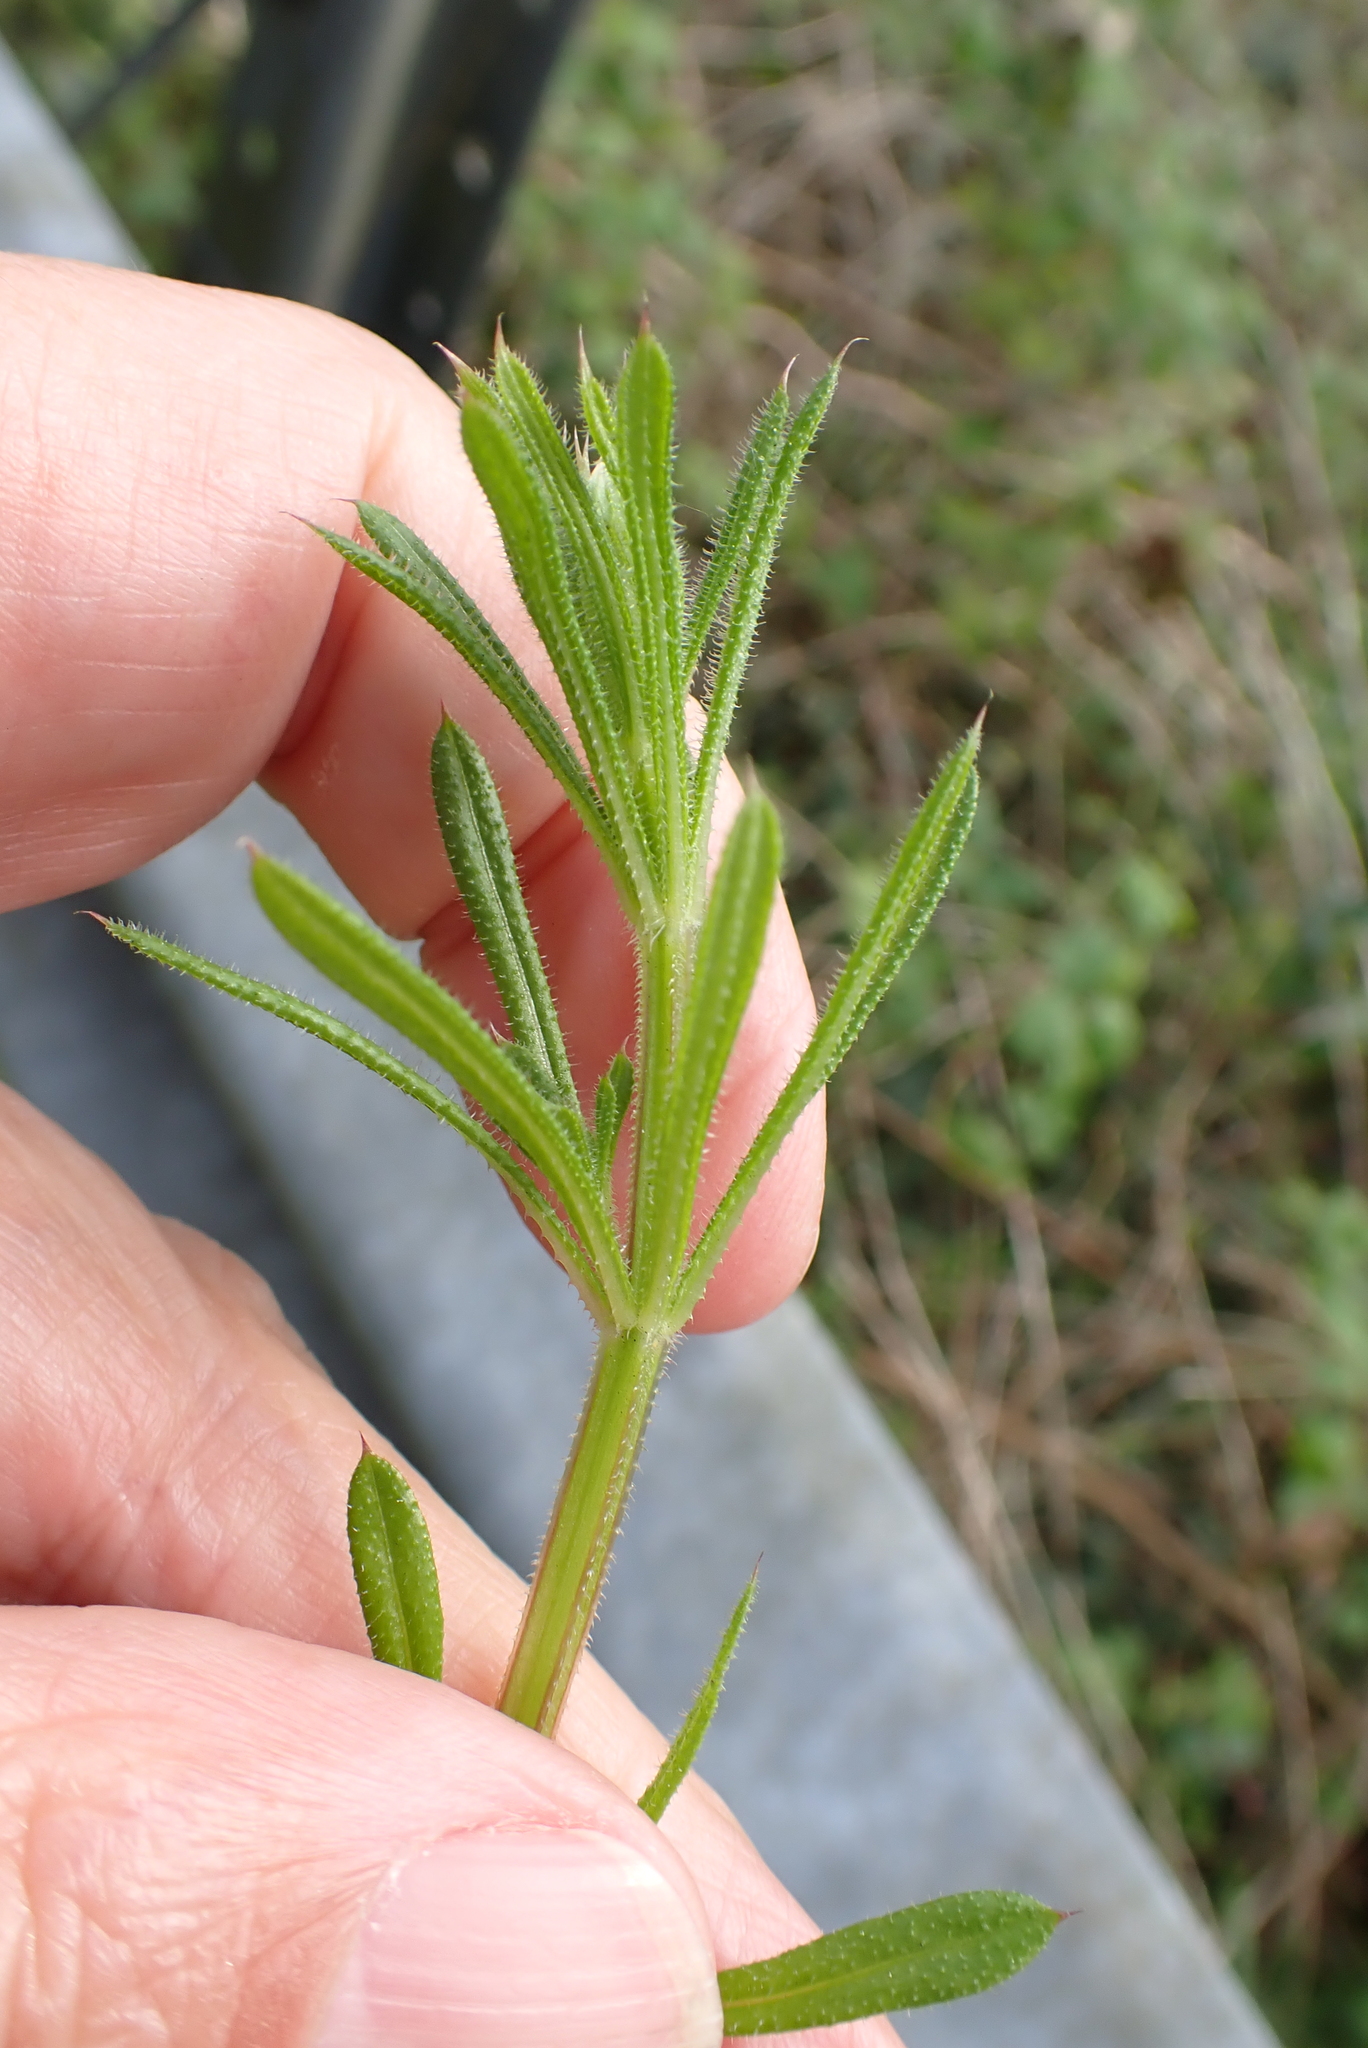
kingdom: Plantae
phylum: Tracheophyta
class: Magnoliopsida
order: Gentianales
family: Rubiaceae
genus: Galium
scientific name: Galium aparine
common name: Cleavers
